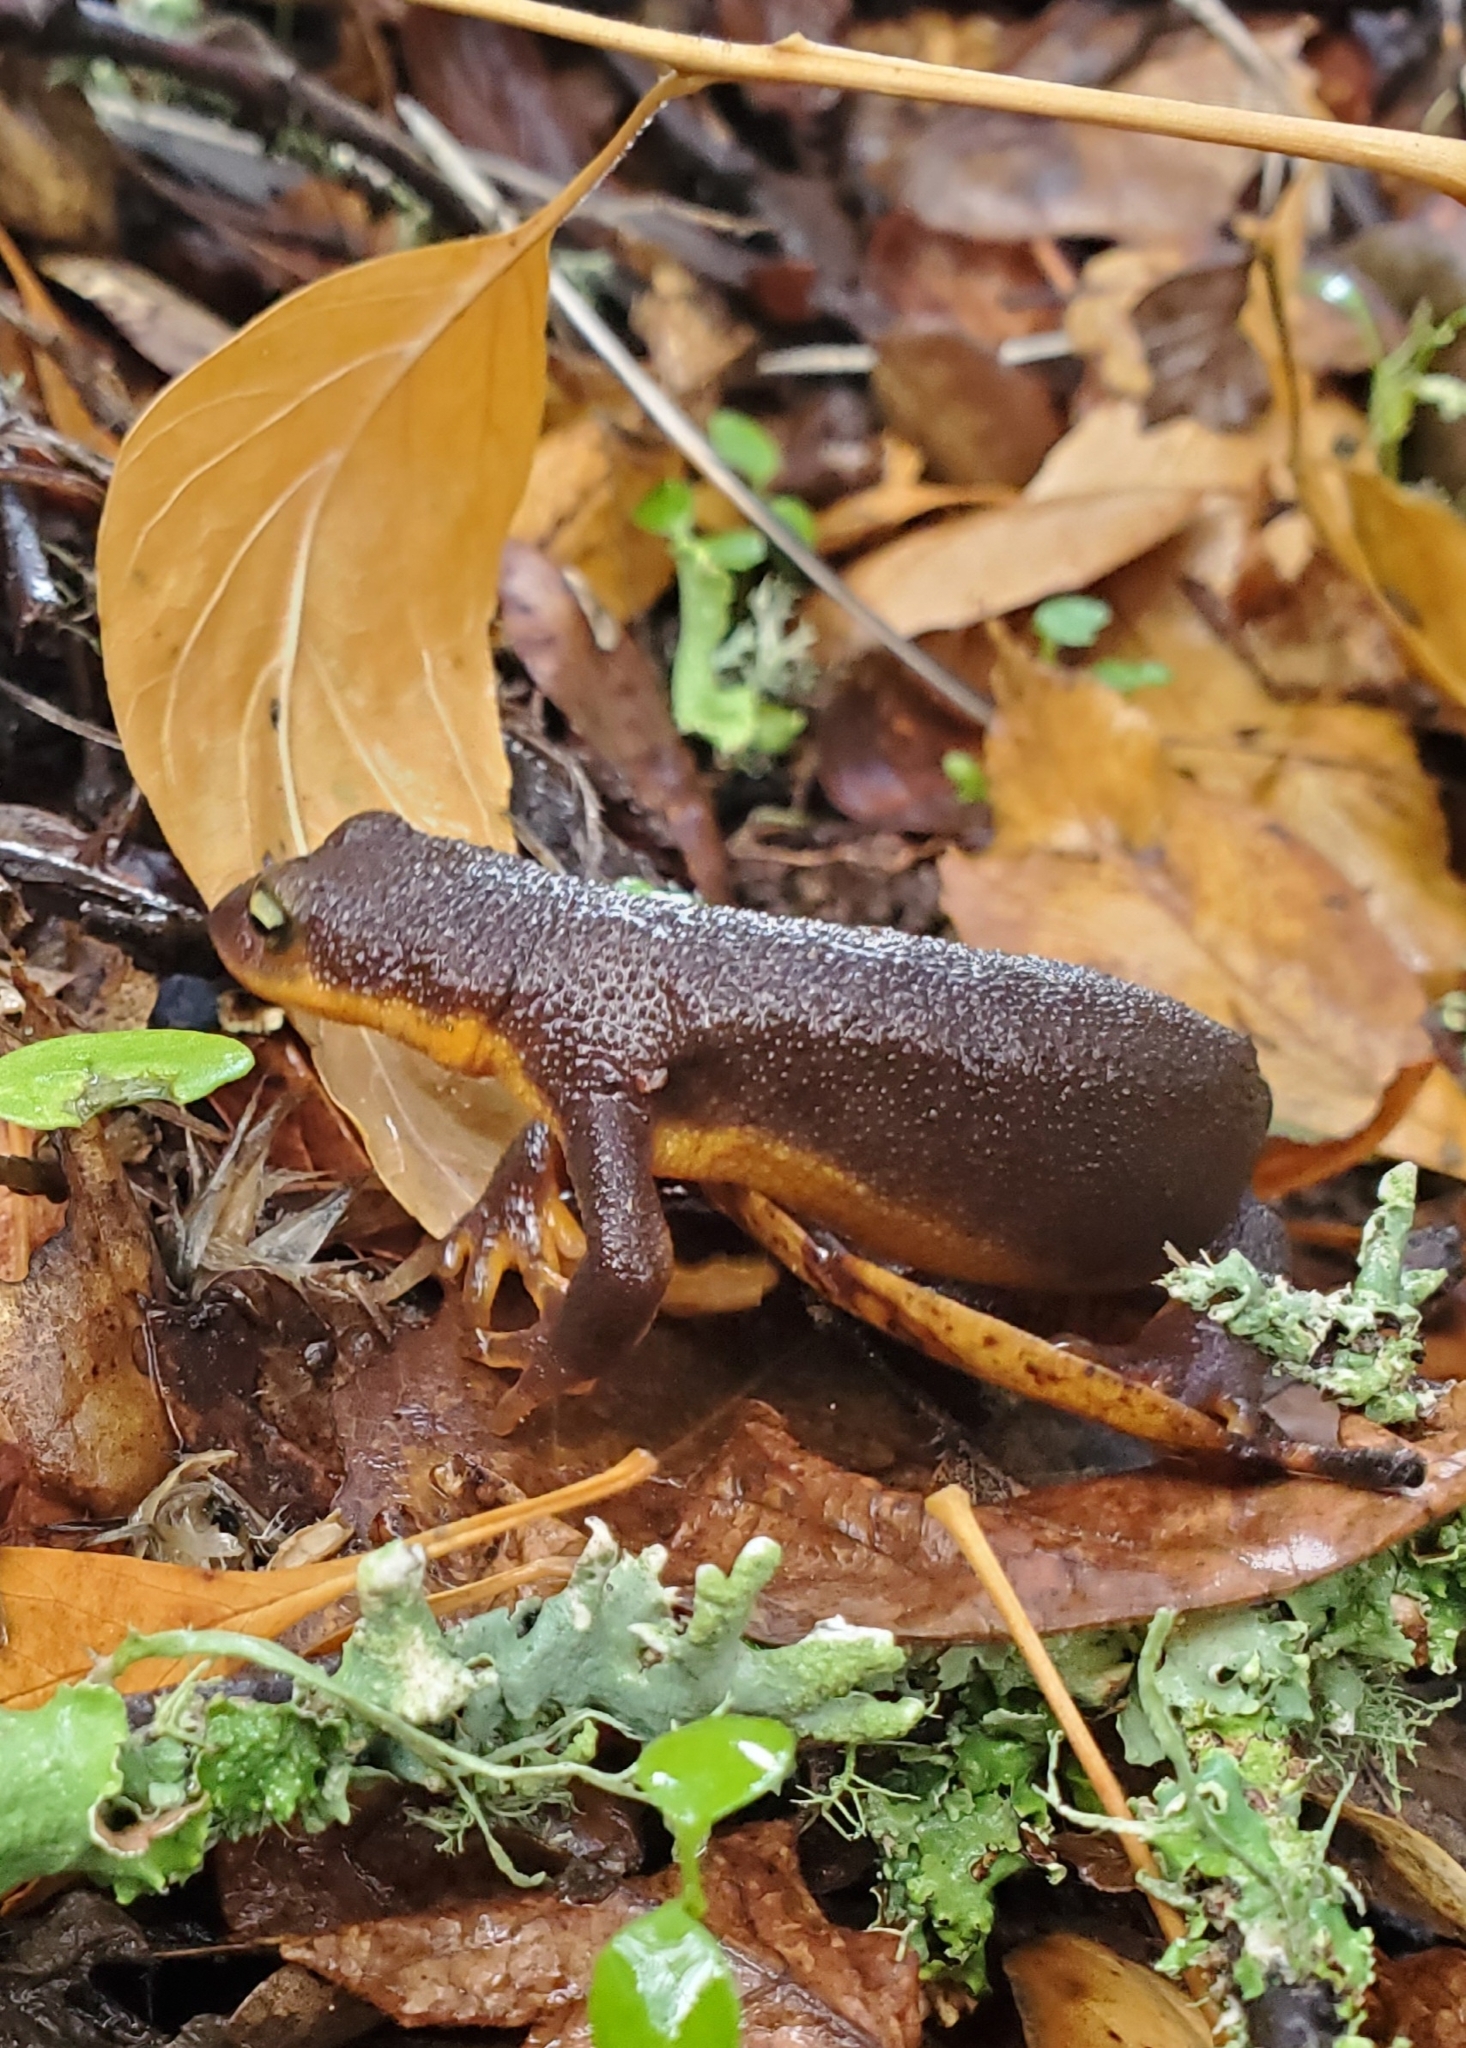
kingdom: Animalia
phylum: Chordata
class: Amphibia
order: Caudata
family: Salamandridae
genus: Taricha
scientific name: Taricha granulosa
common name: Roughskin newt
